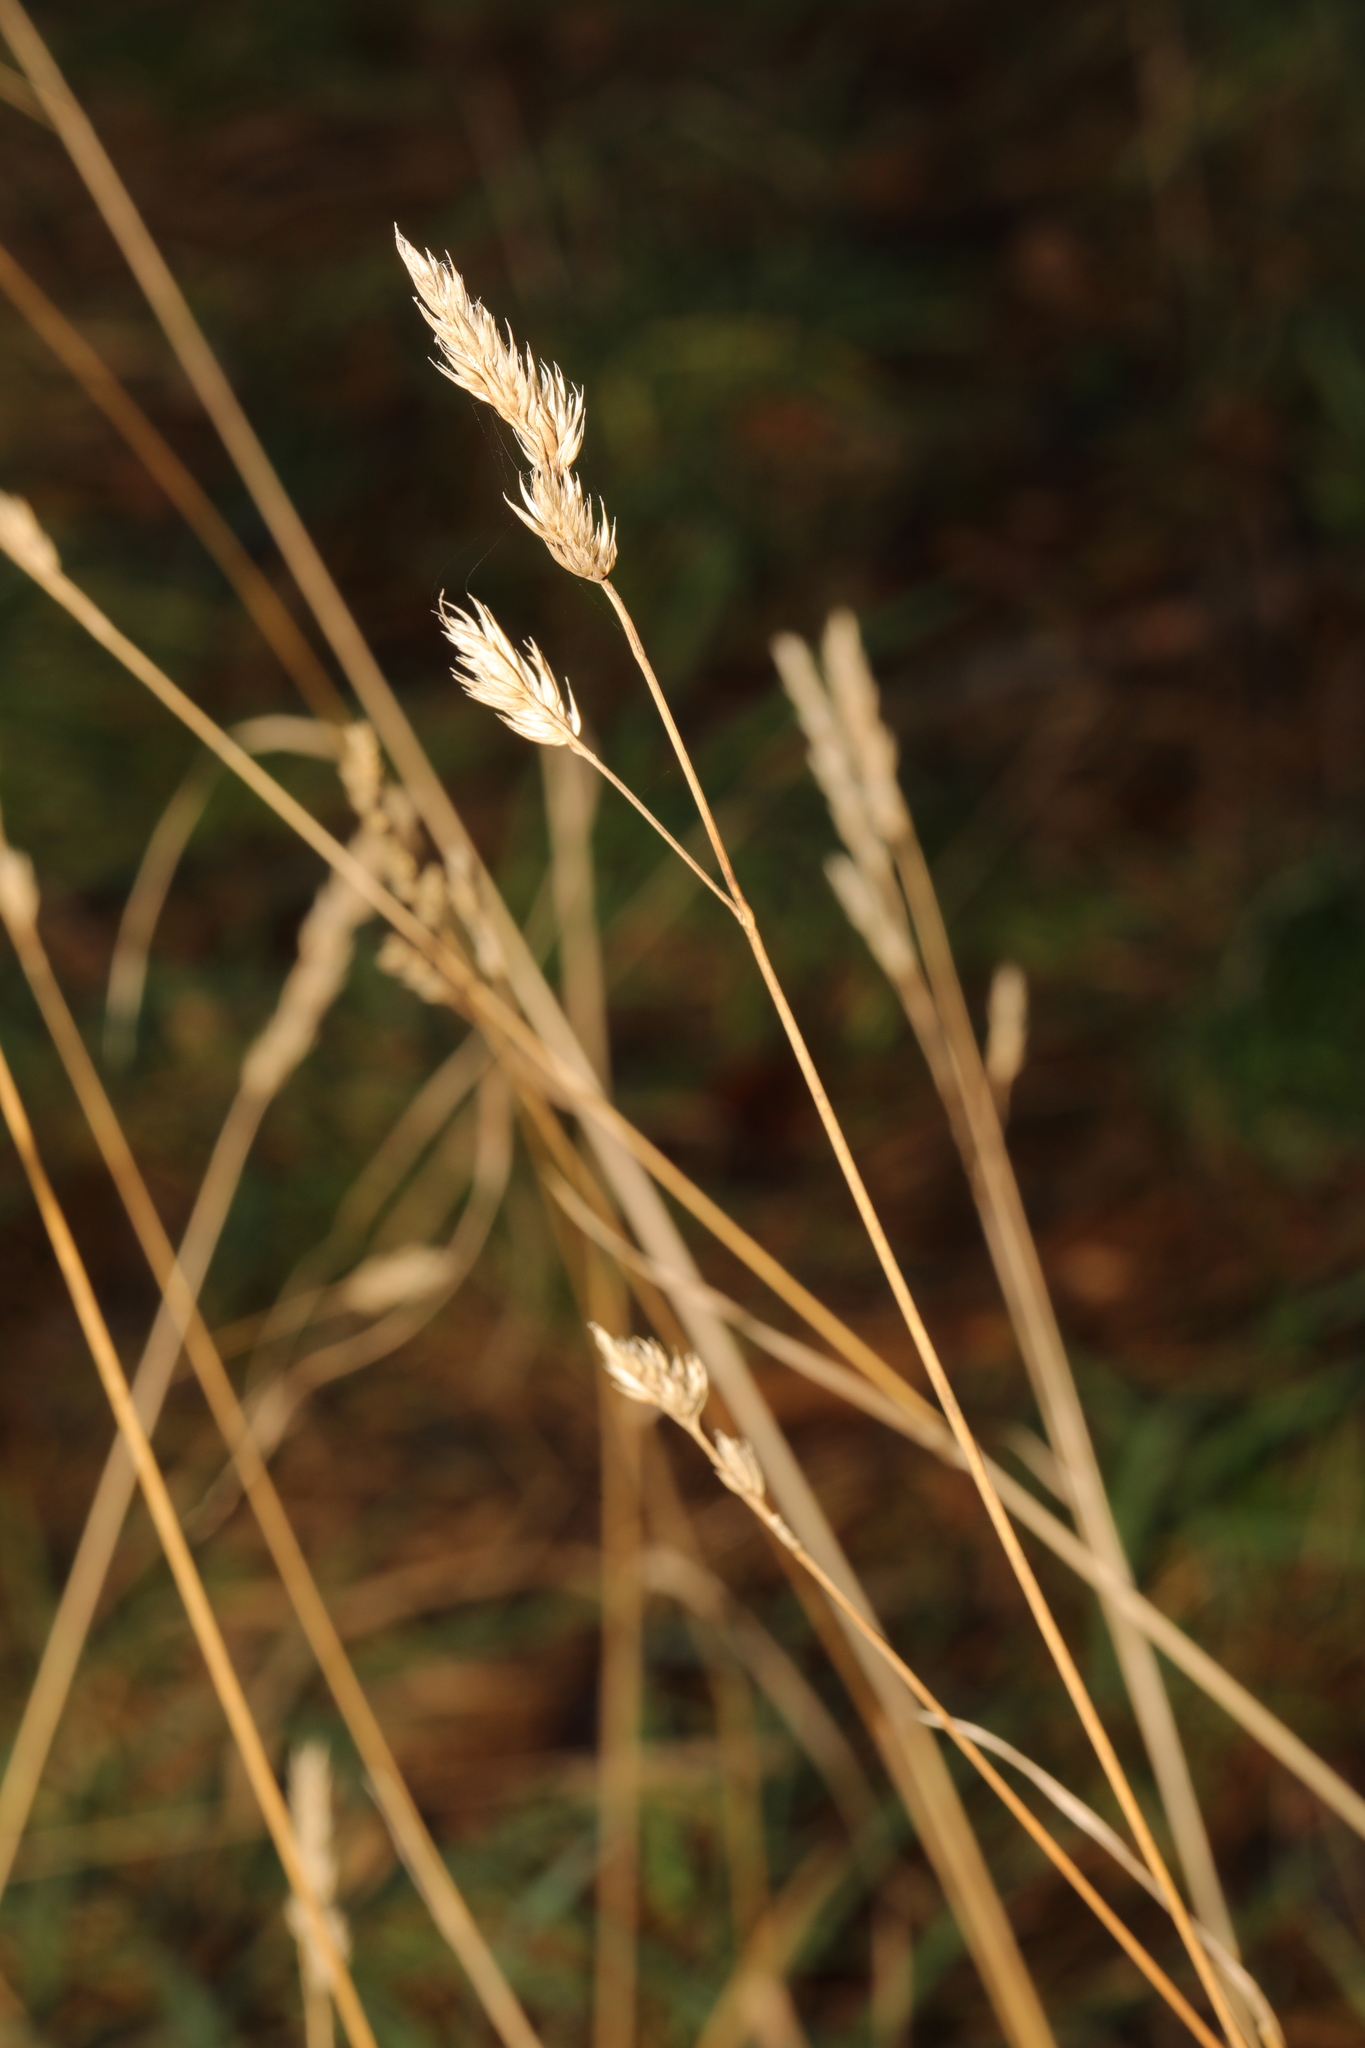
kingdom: Plantae
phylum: Tracheophyta
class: Liliopsida
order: Poales
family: Poaceae
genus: Dactylis
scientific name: Dactylis glomerata
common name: Orchardgrass
